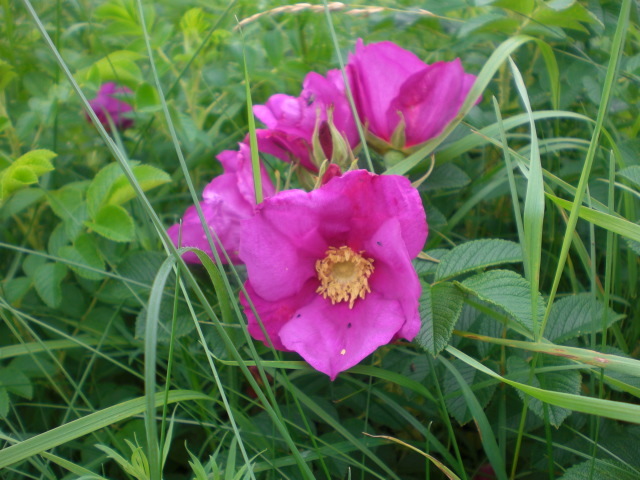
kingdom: Plantae
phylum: Tracheophyta
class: Magnoliopsida
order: Rosales
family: Rosaceae
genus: Rosa
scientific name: Rosa rugosa
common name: Japanese rose
